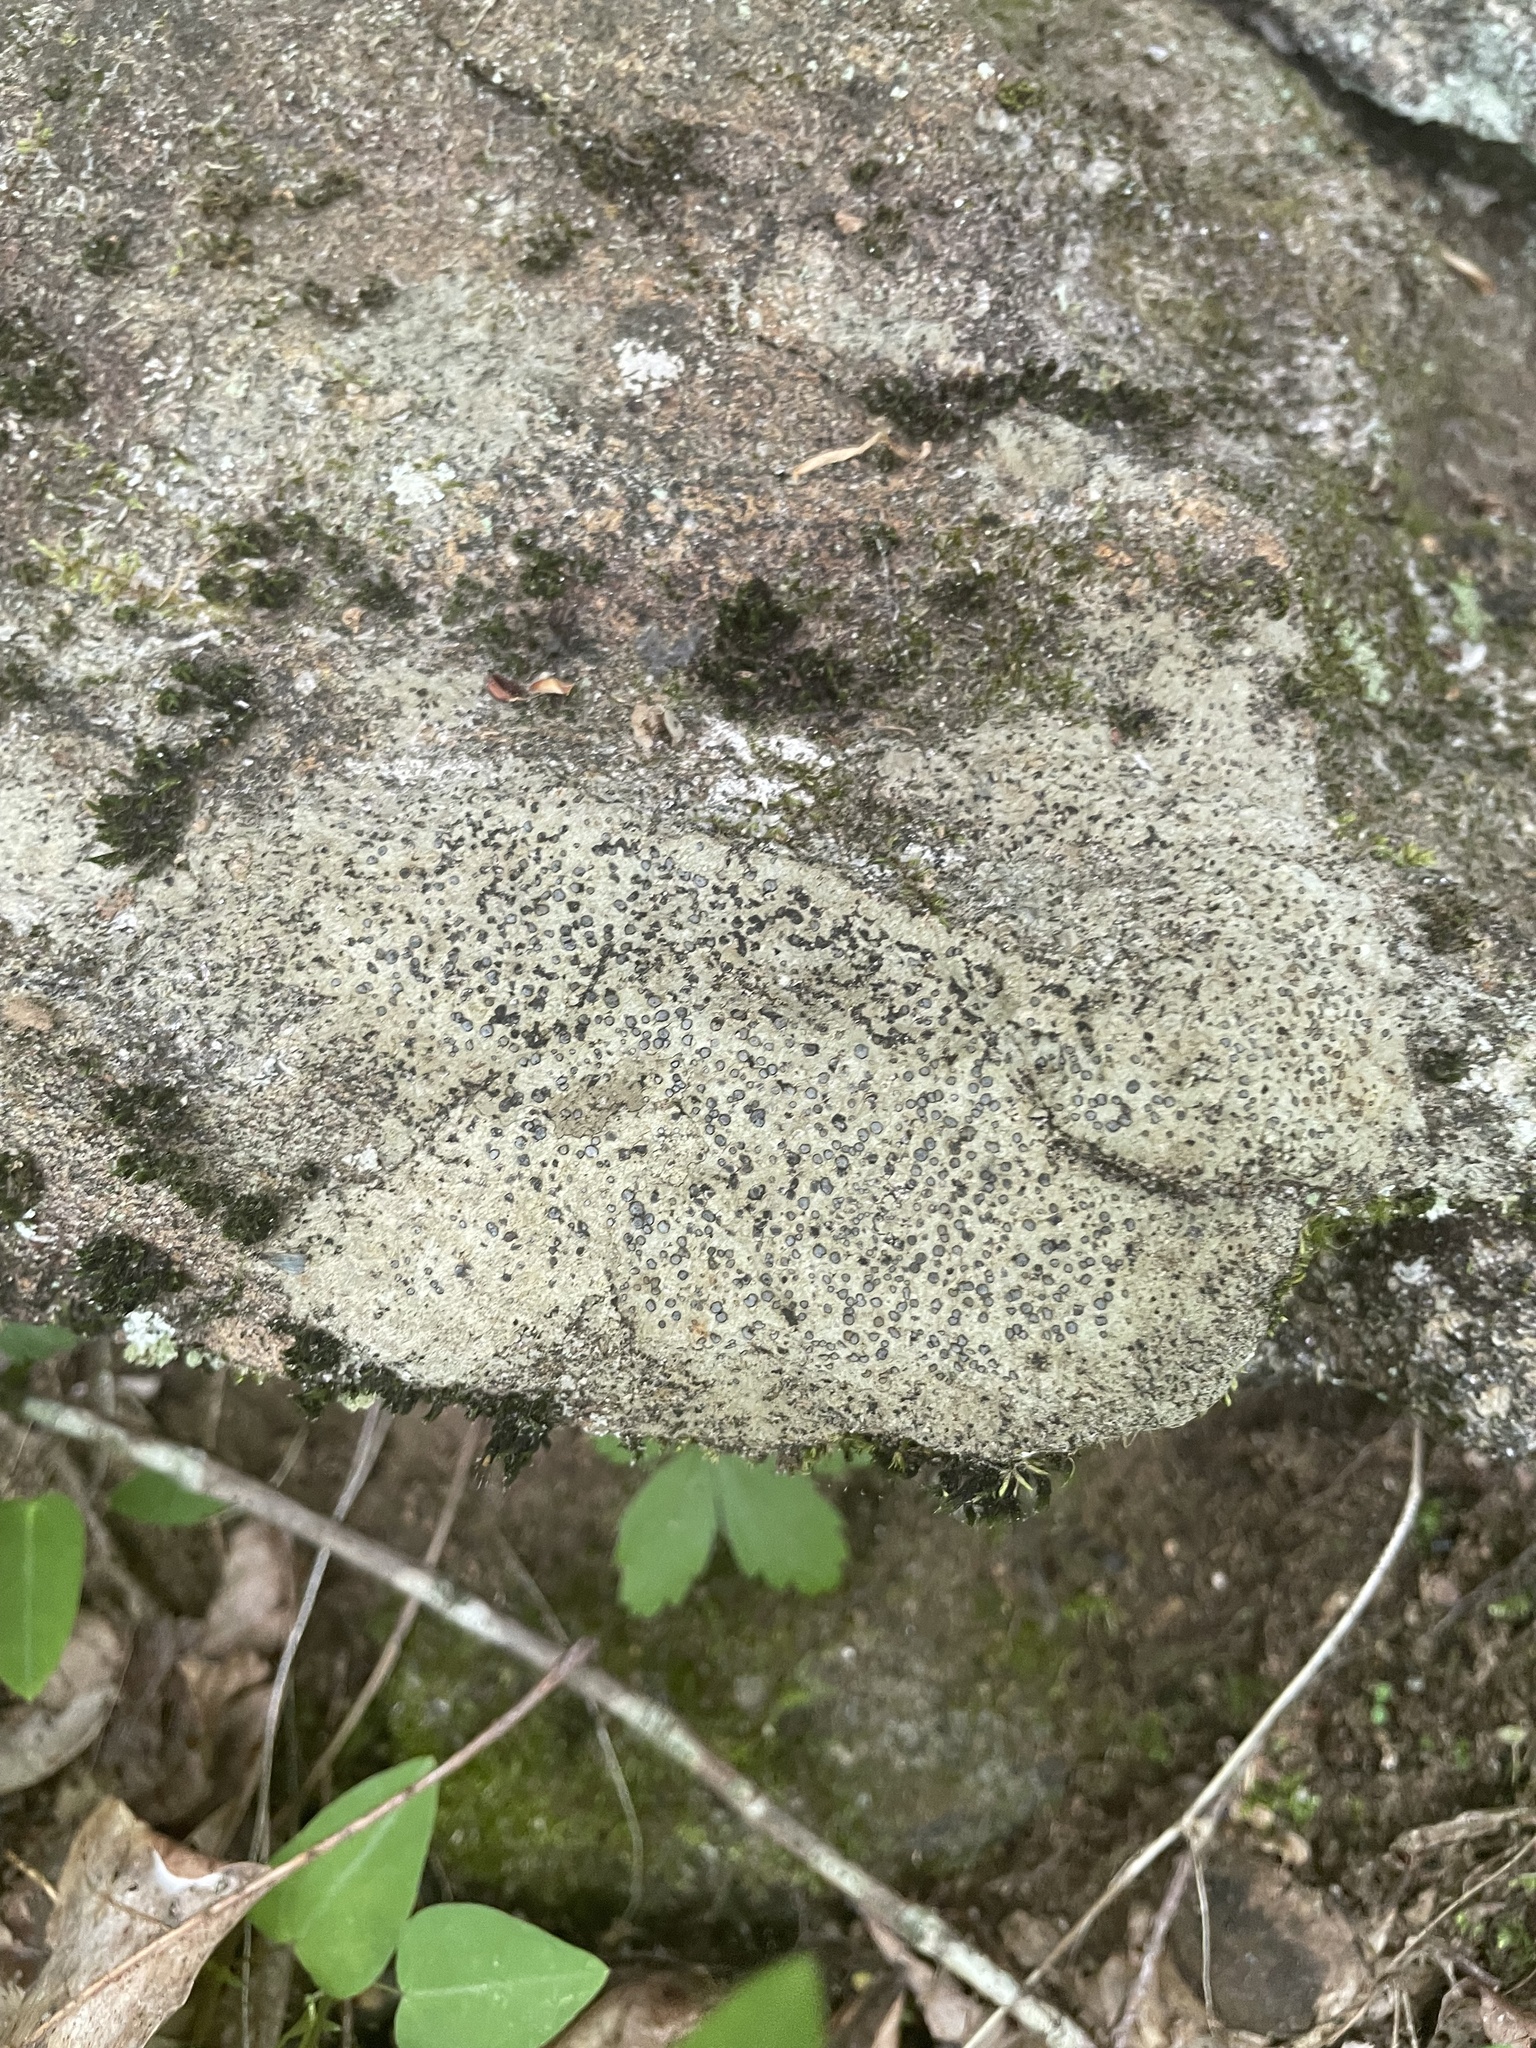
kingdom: Fungi
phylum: Ascomycota
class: Lecanoromycetes
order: Lecideales
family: Lecideaceae
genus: Porpidia
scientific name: Porpidia albocaerulescens
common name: Smokey-eyed boulder lichen
